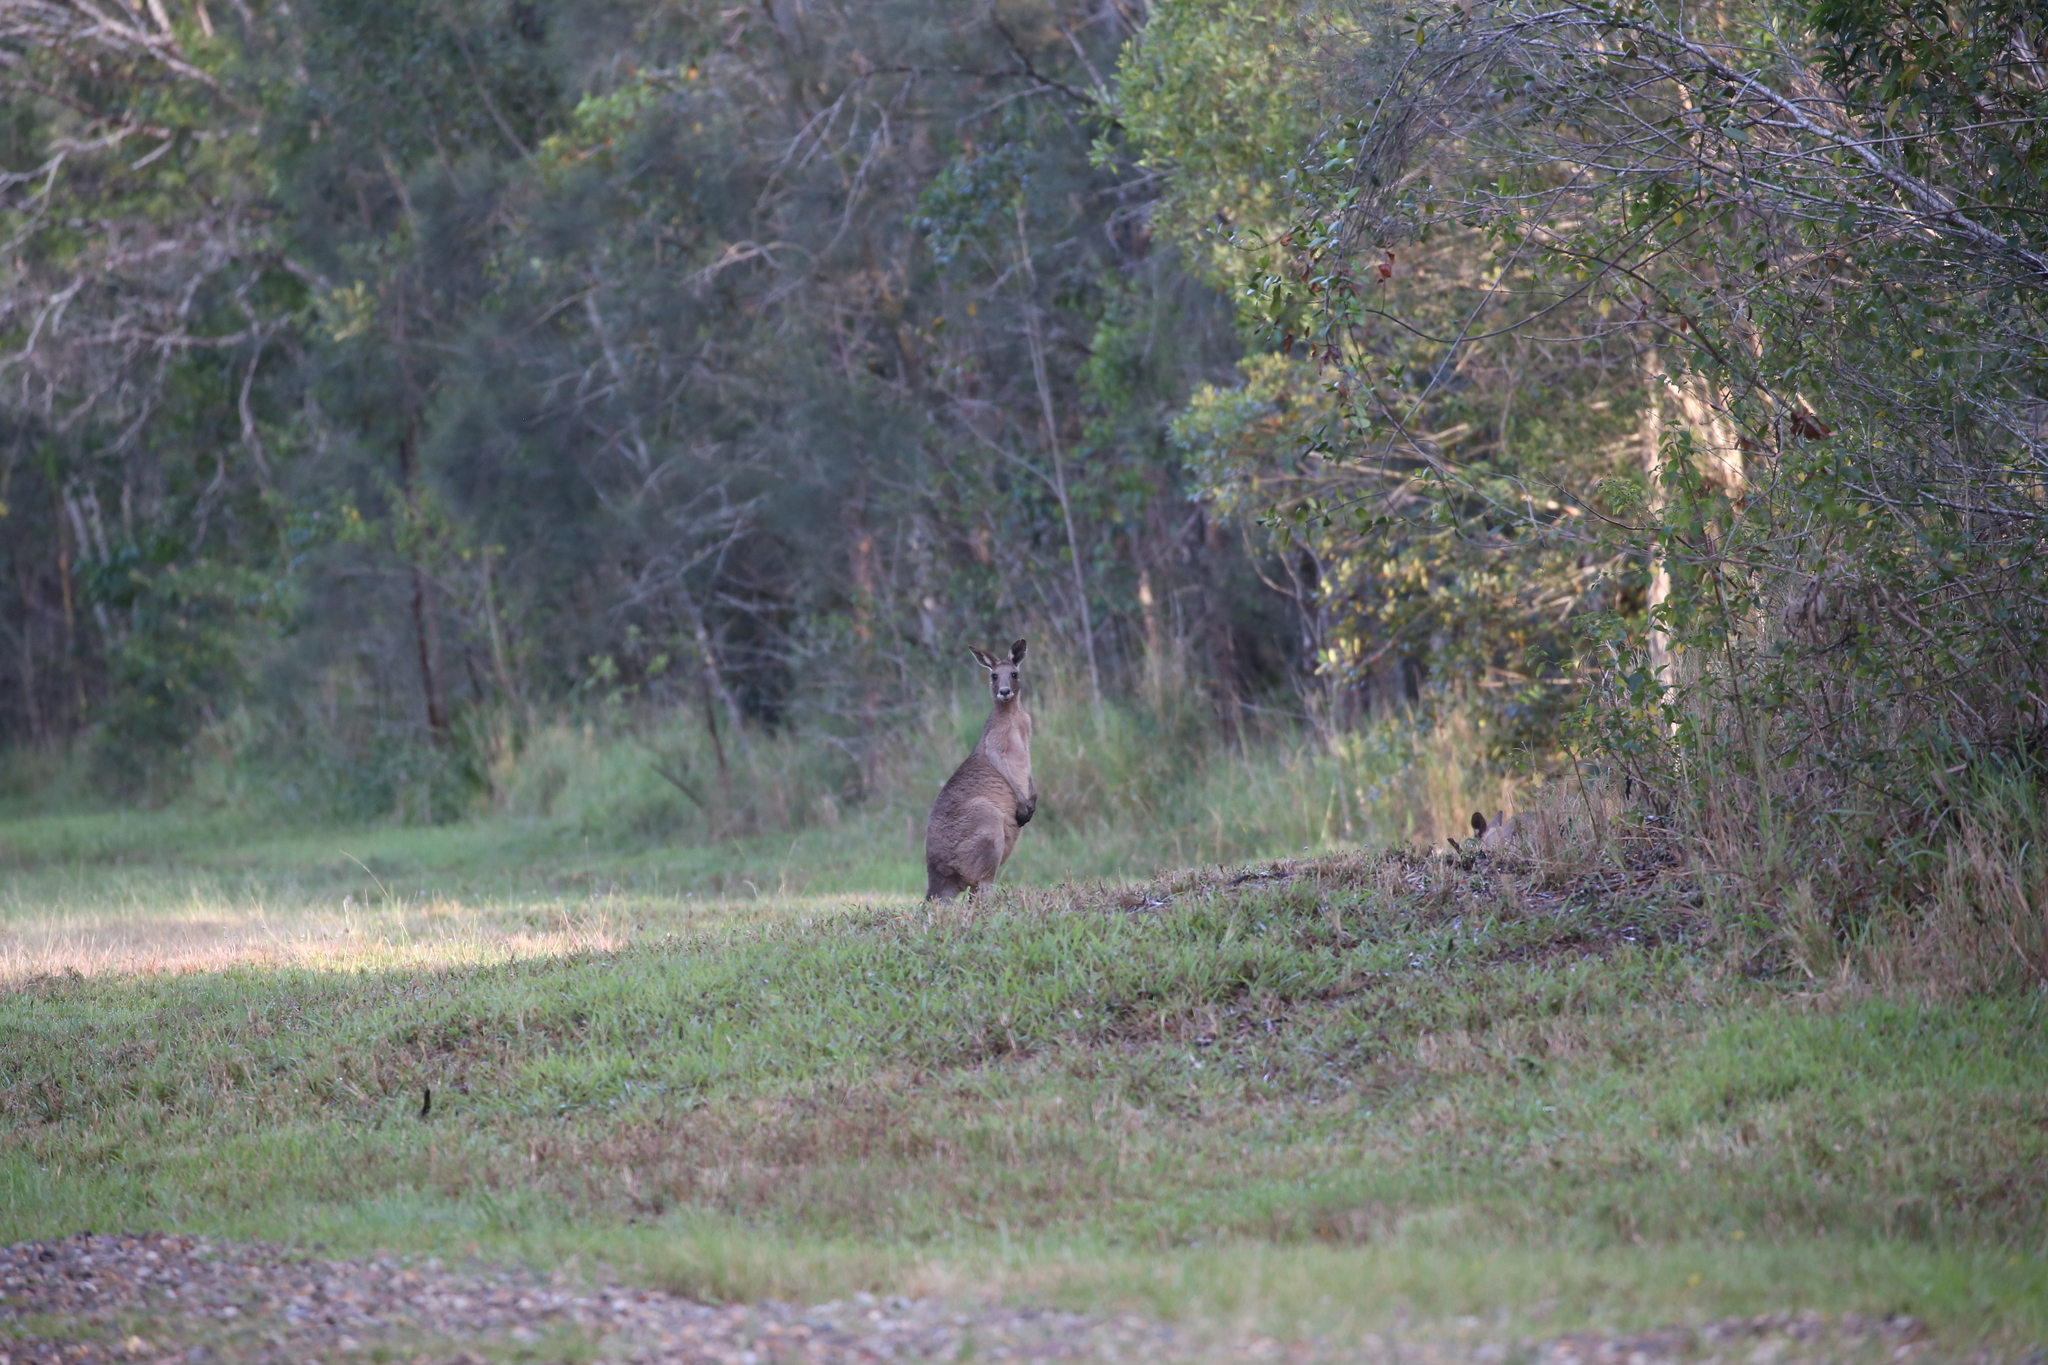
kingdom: Animalia
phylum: Chordata
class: Mammalia
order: Diprotodontia
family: Macropodidae
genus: Macropus
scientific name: Macropus giganteus
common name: Eastern grey kangaroo
